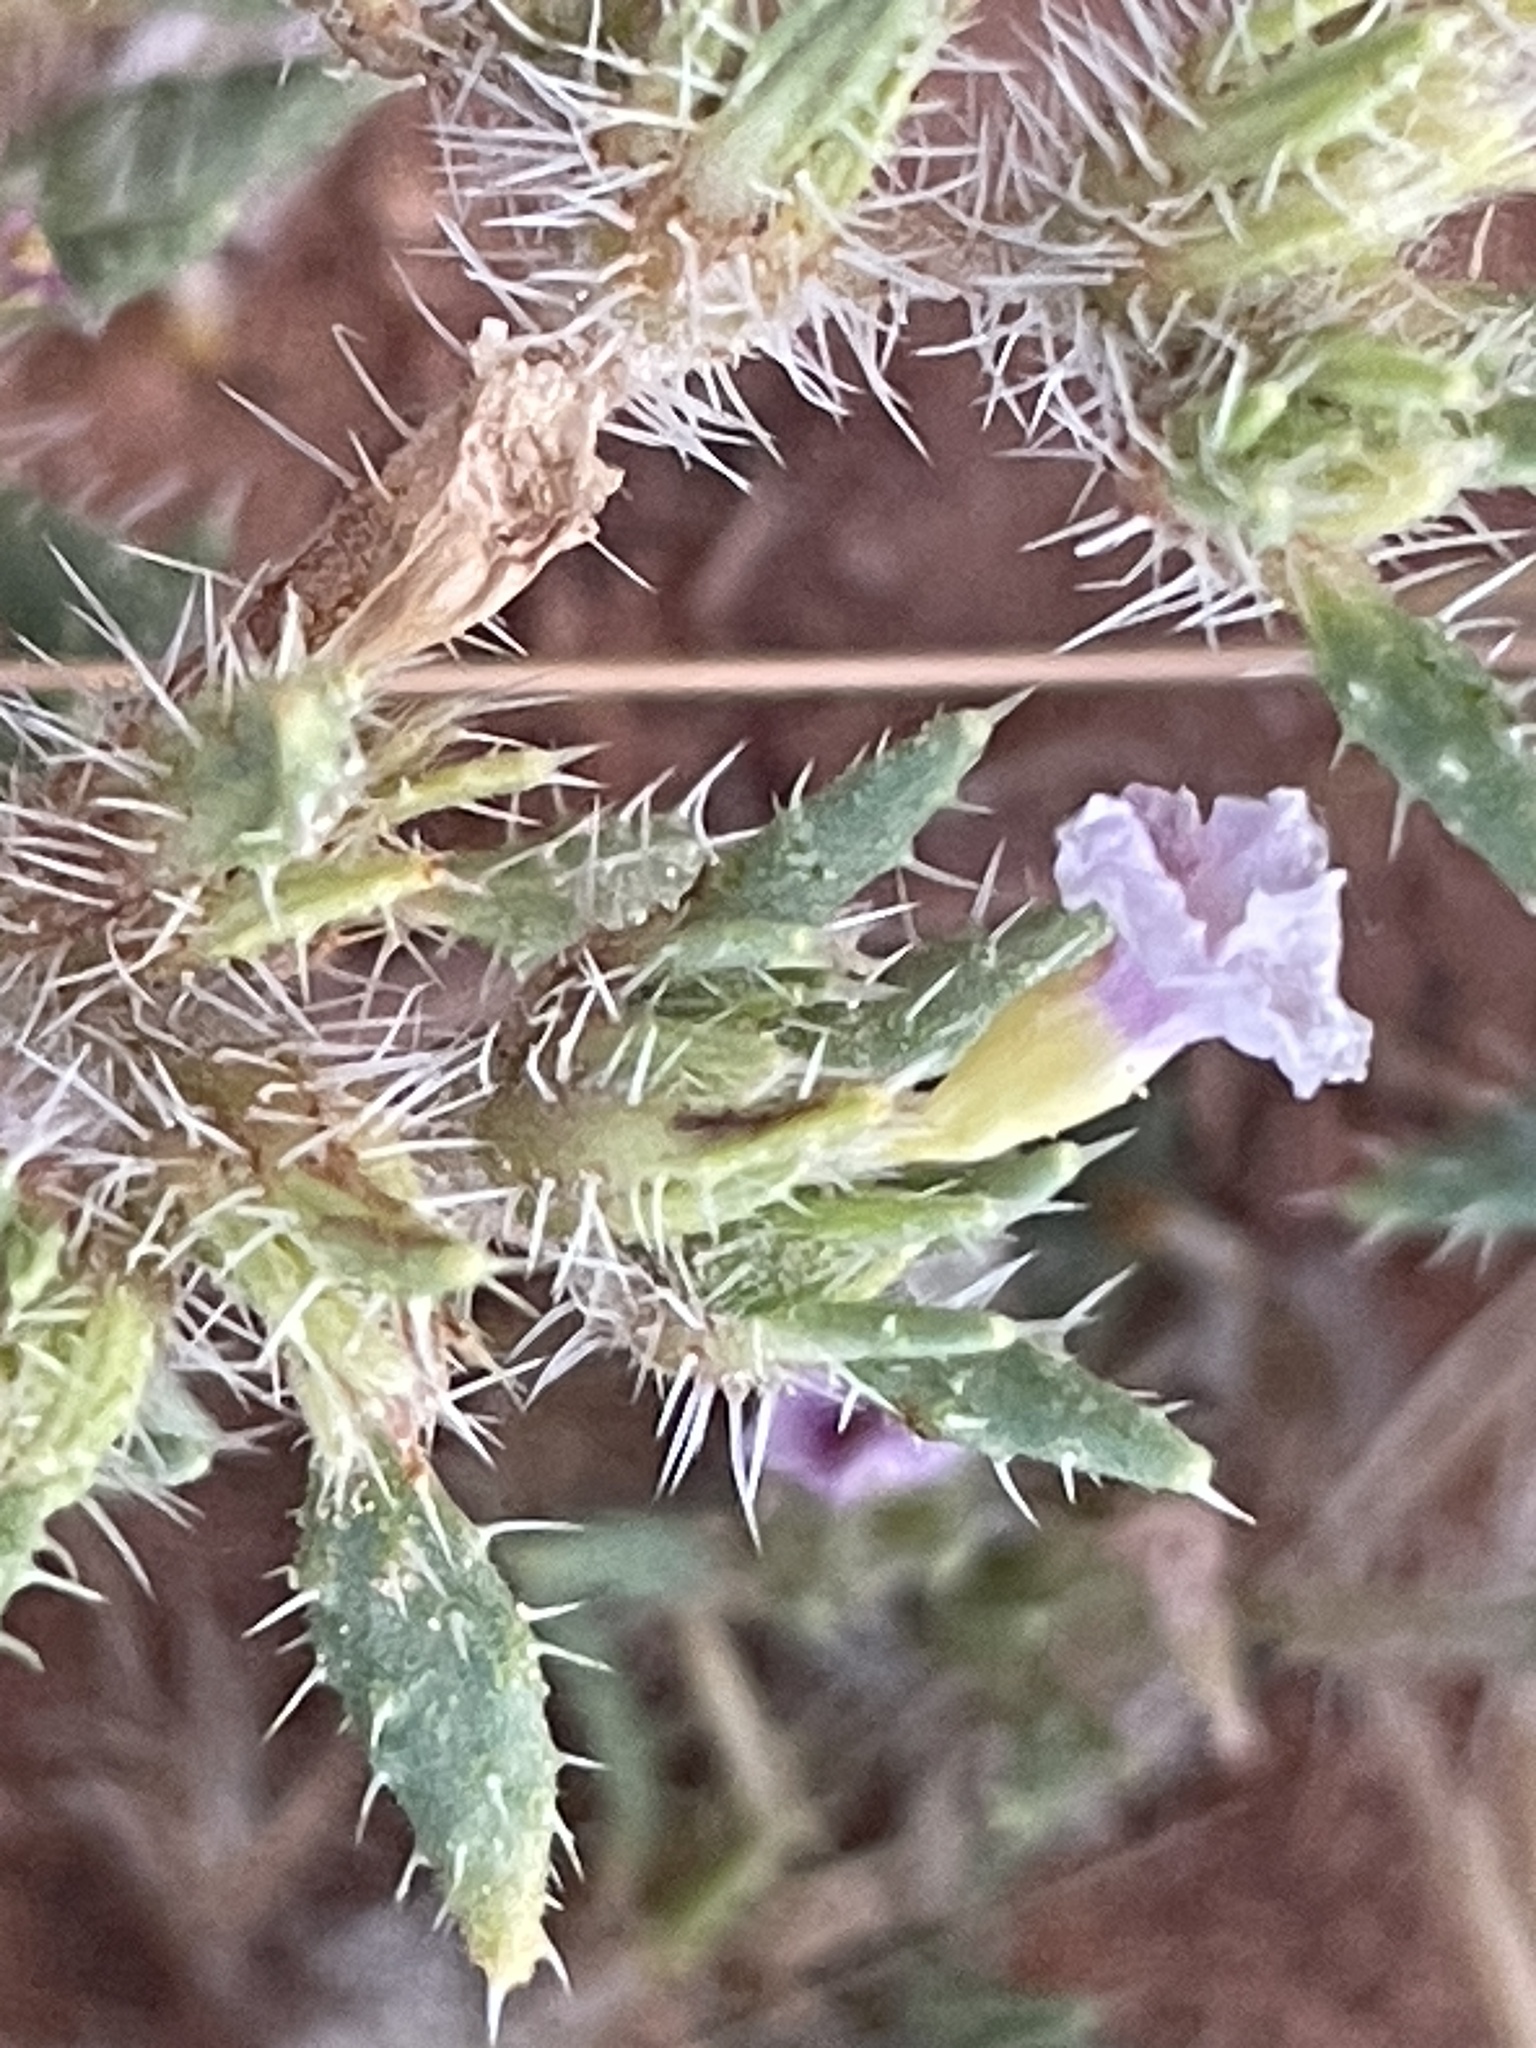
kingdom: Plantae
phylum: Tracheophyta
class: Magnoliopsida
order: Boraginales
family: Ehretiaceae
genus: Tiquilia
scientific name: Tiquilia latior
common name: Matted tiquilia
